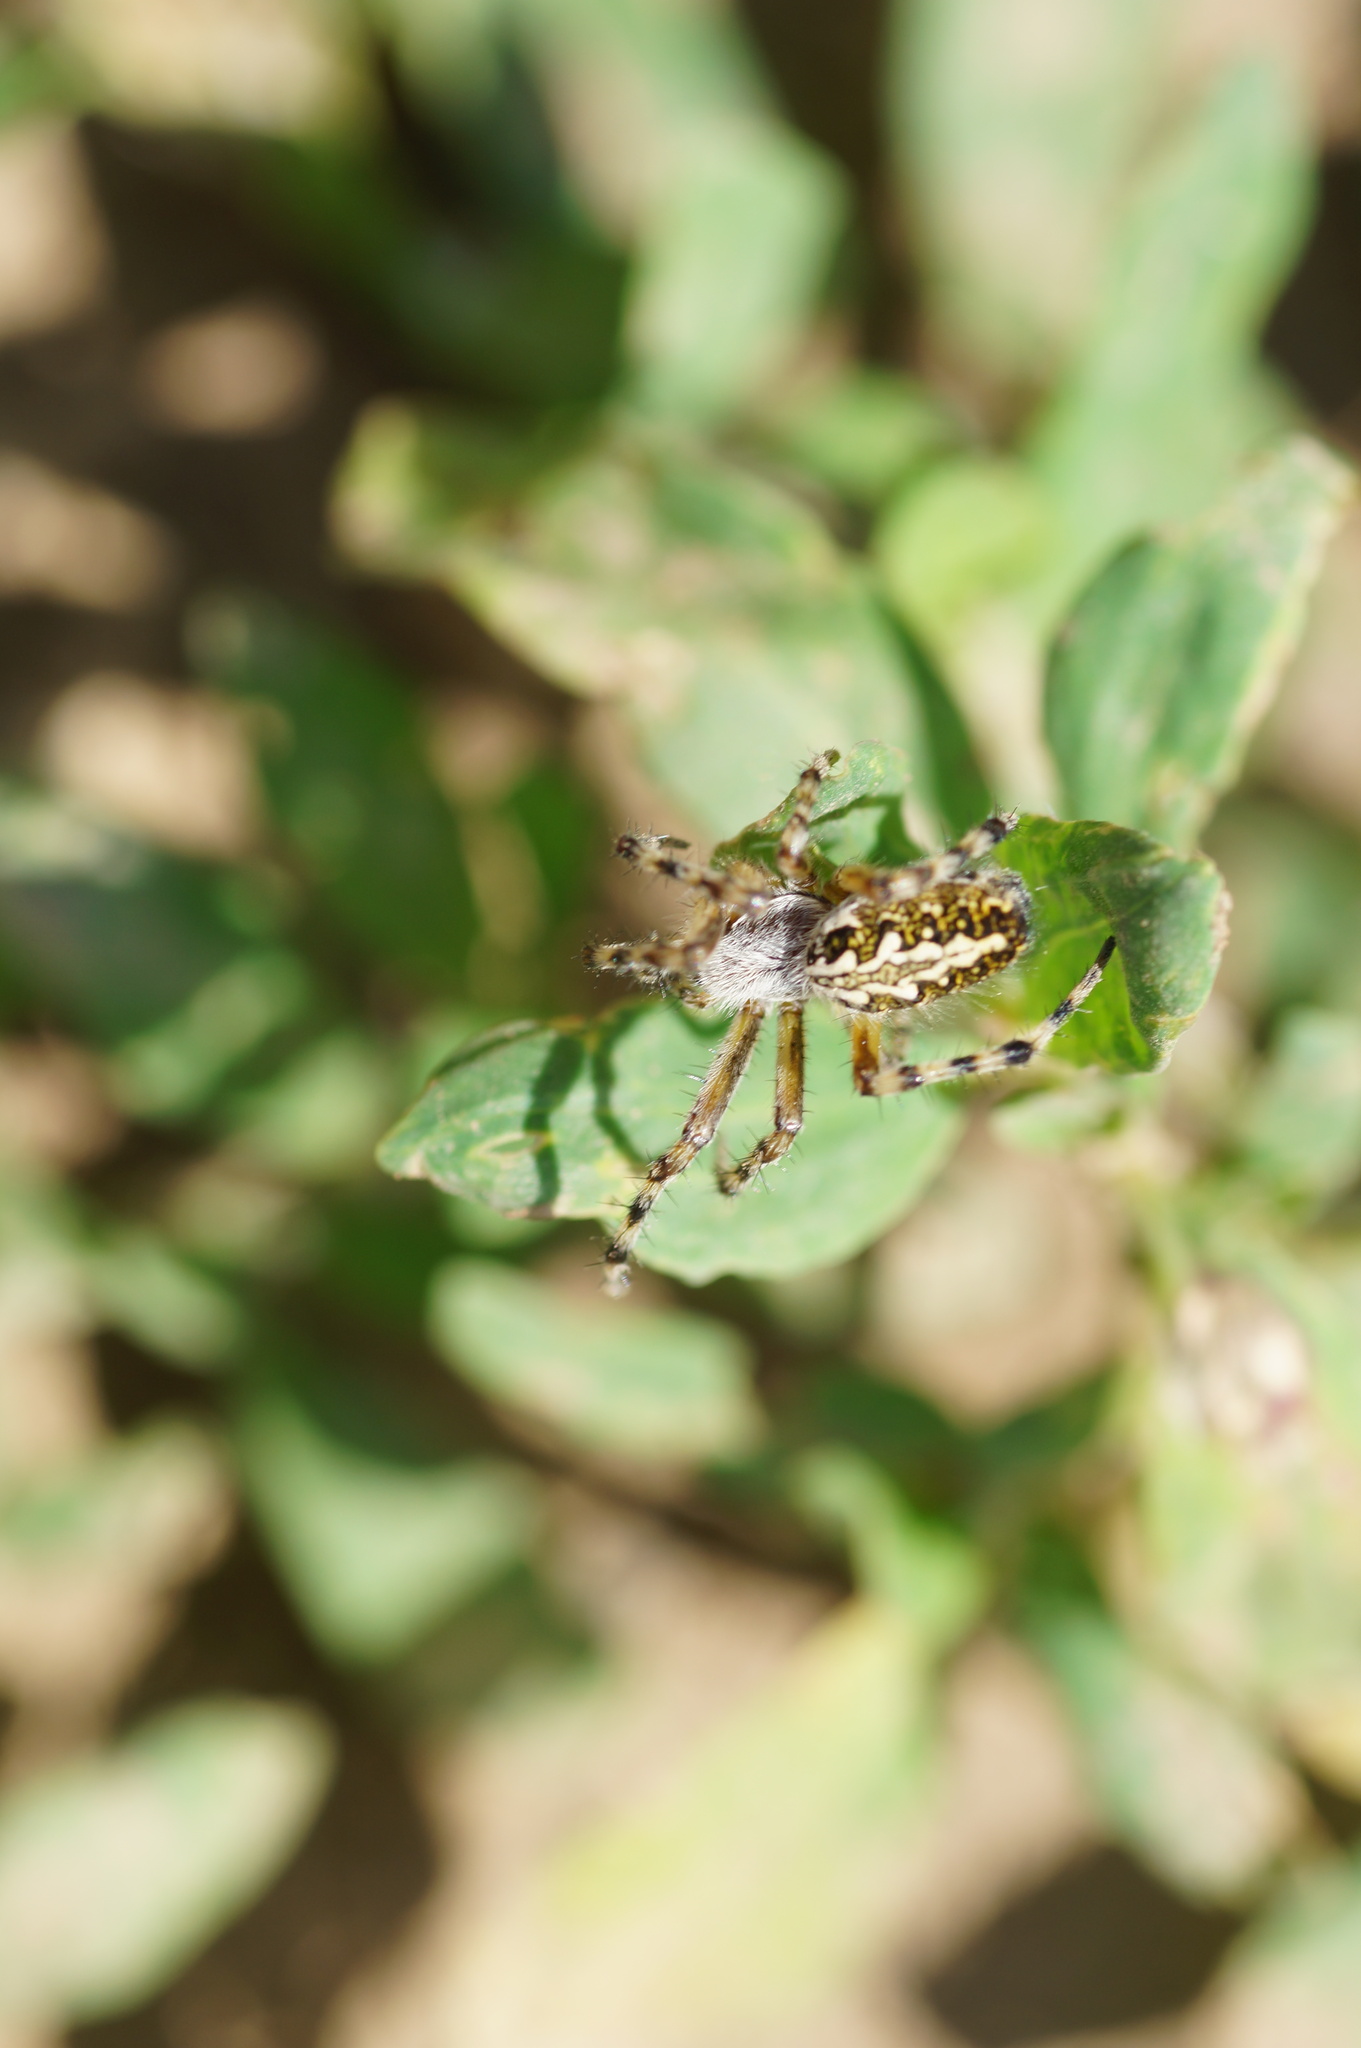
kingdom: Animalia
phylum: Arthropoda
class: Arachnida
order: Araneae
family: Araneidae
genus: Aculepeira
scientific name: Aculepeira ceropegia
